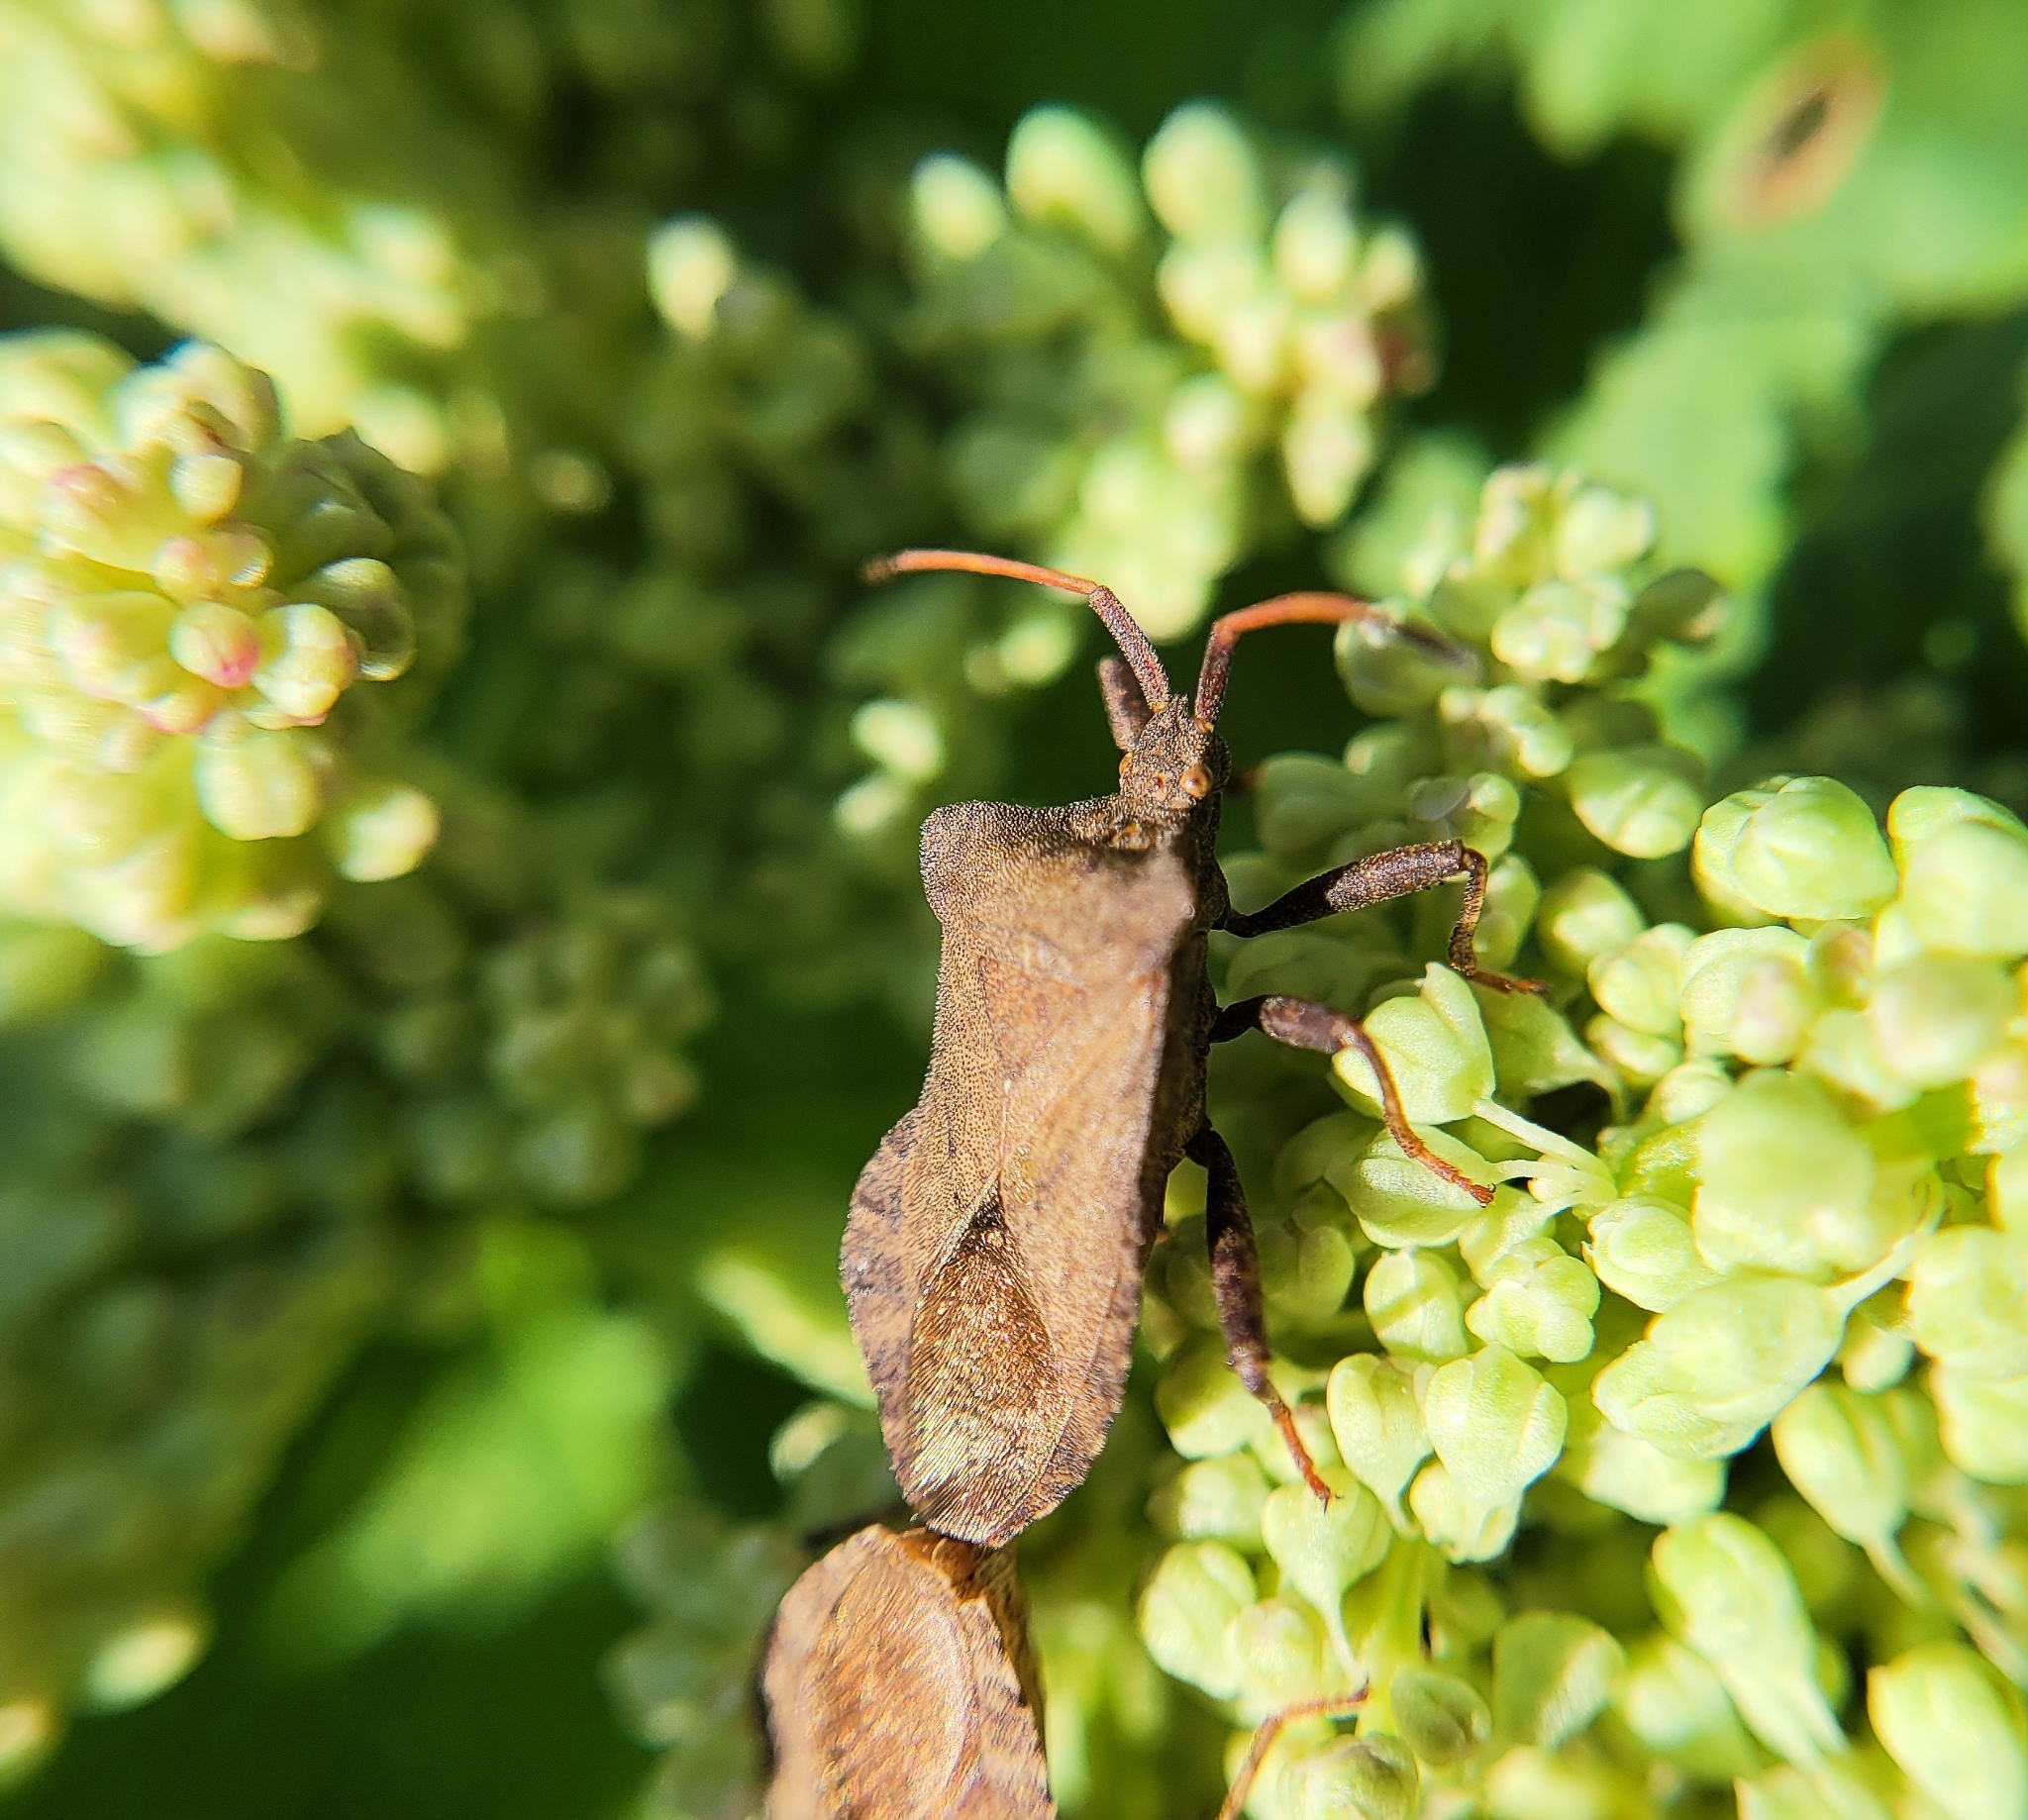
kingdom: Animalia
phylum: Arthropoda
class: Insecta
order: Hemiptera
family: Coreidae
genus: Coreus
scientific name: Coreus marginatus
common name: Dock bug
